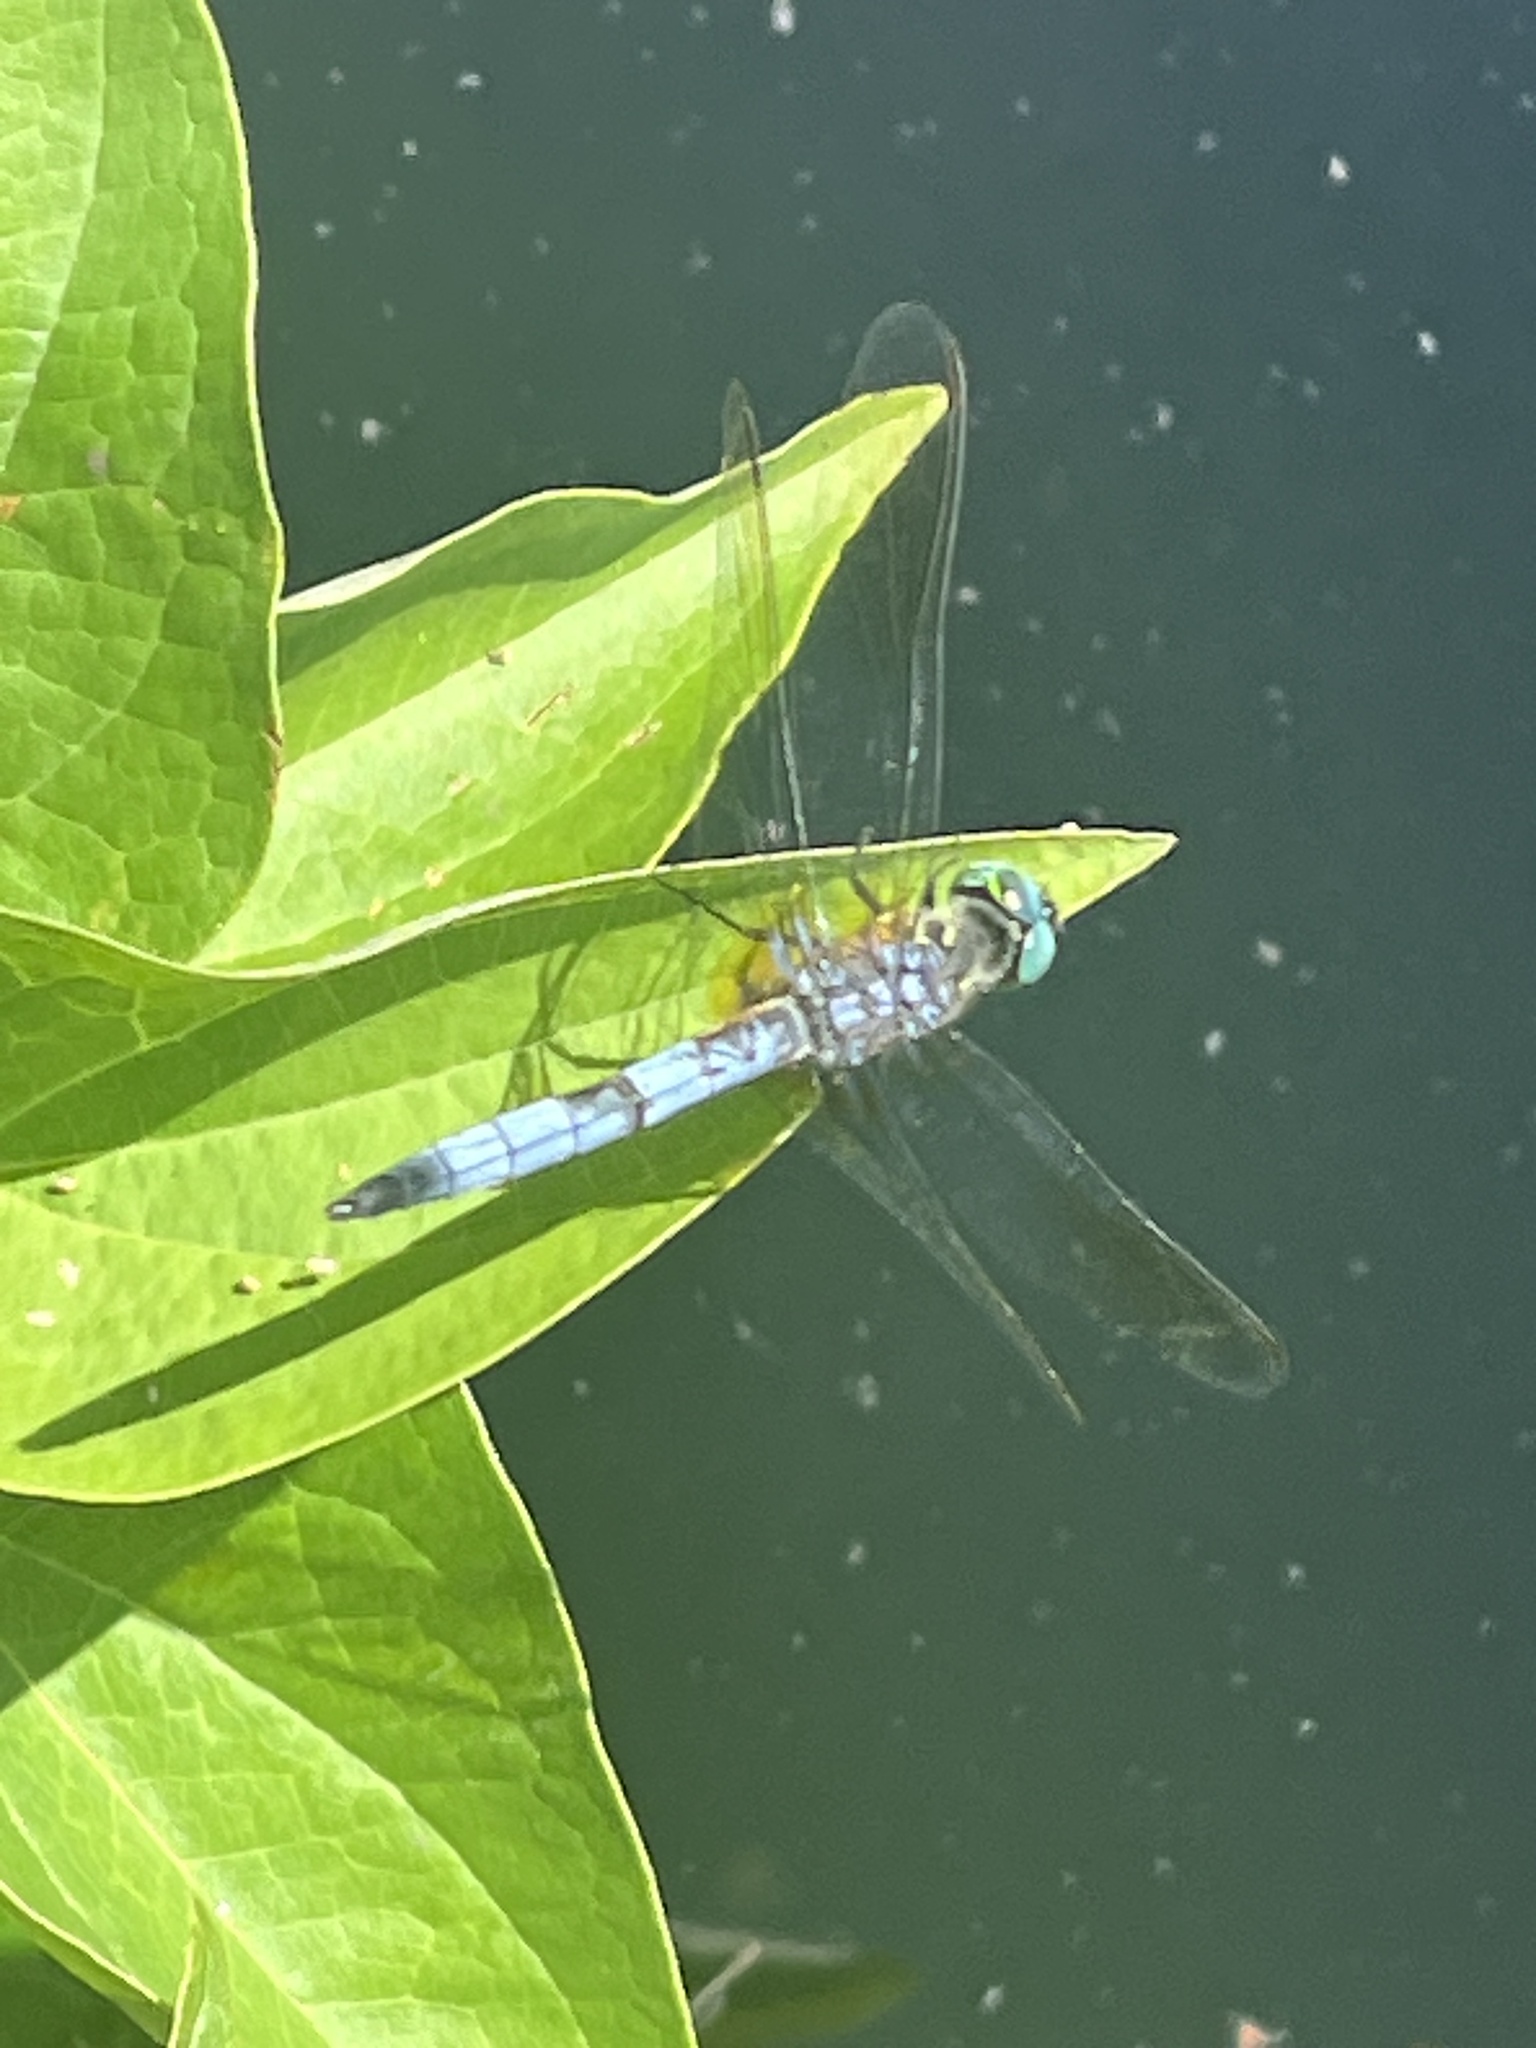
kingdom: Animalia
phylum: Arthropoda
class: Insecta
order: Odonata
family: Libellulidae
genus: Pachydiplax
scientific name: Pachydiplax longipennis
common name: Blue dasher
